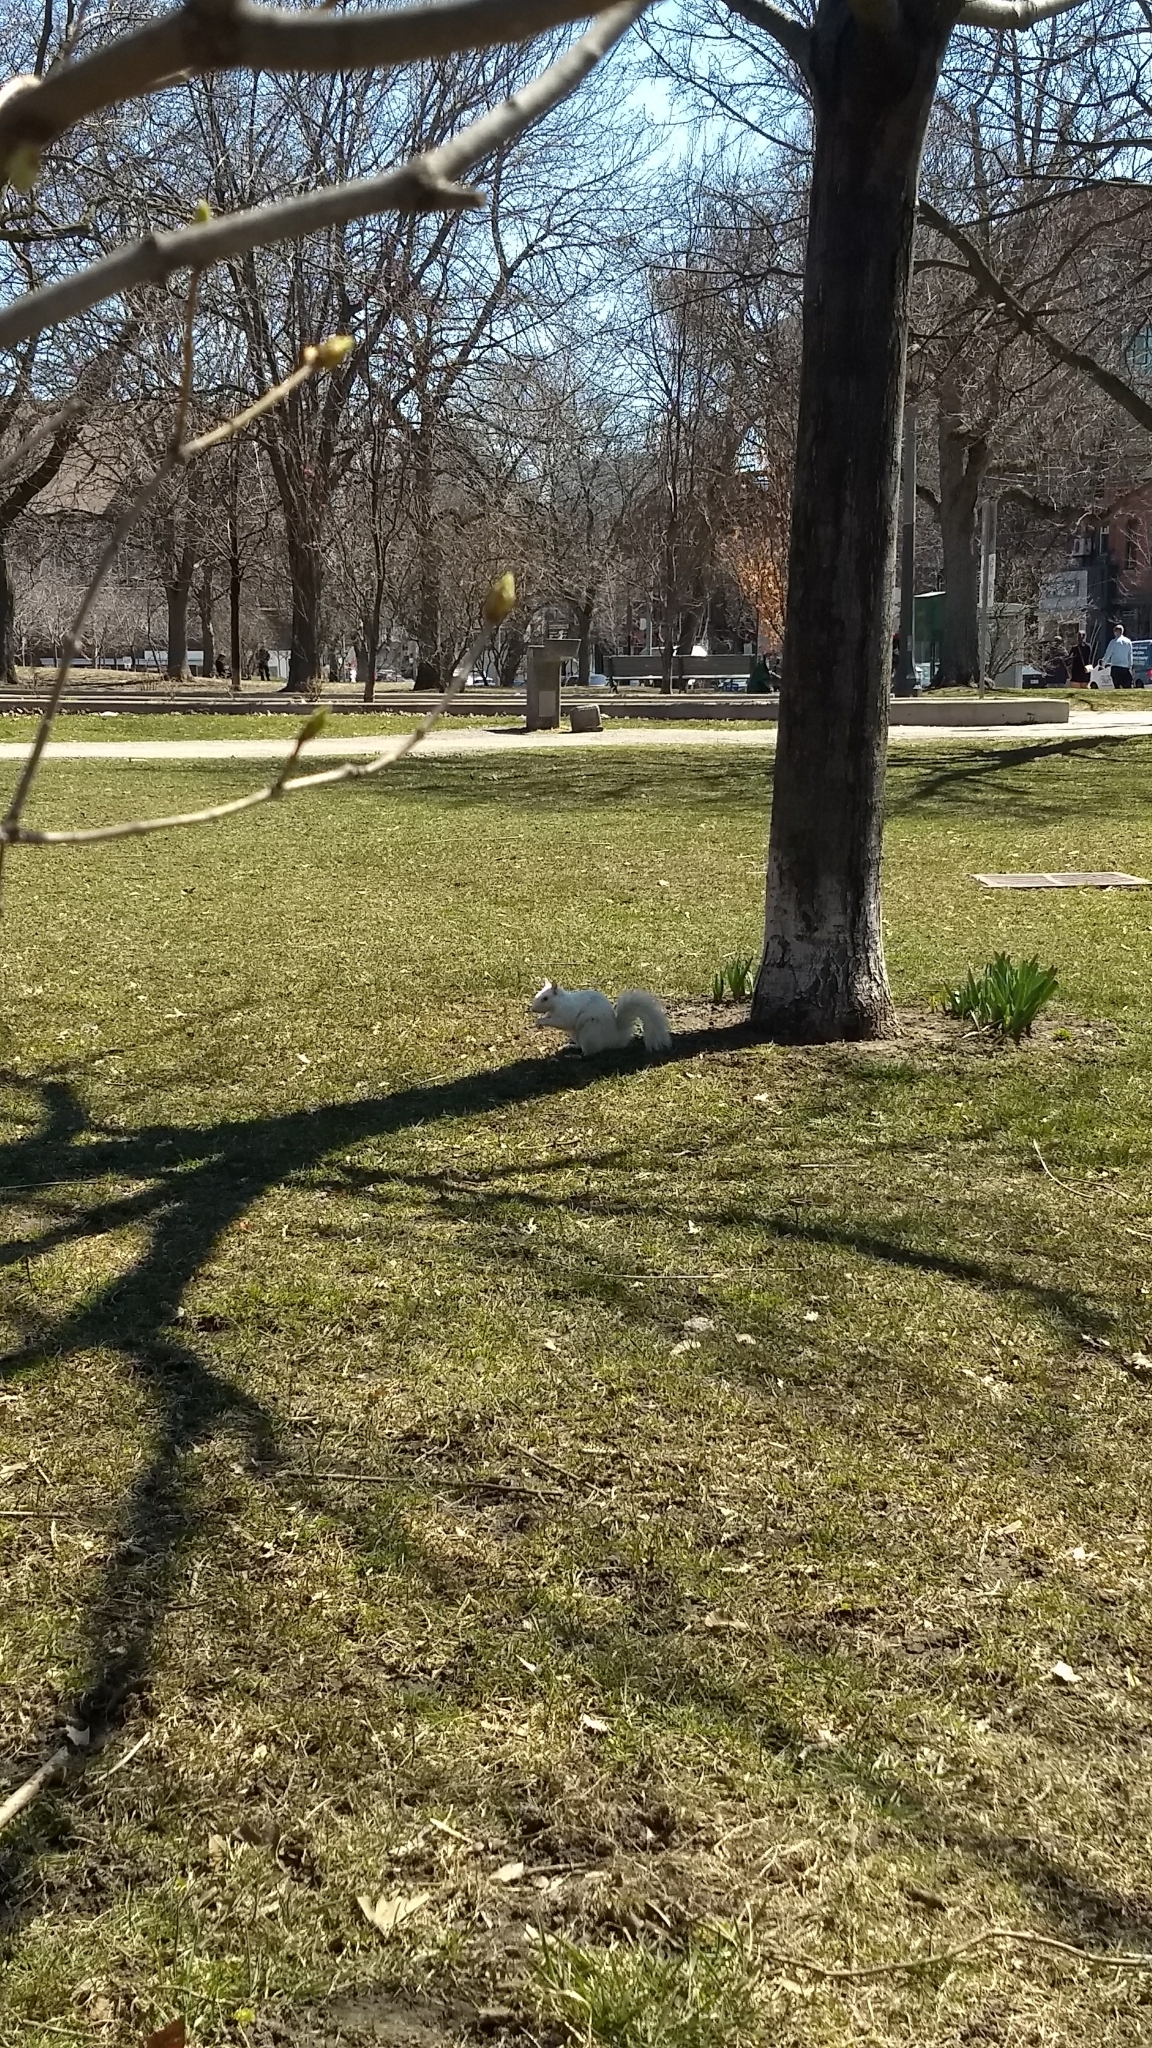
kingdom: Animalia
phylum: Chordata
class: Mammalia
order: Rodentia
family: Sciuridae
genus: Sciurus
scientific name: Sciurus carolinensis
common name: Eastern gray squirrel
